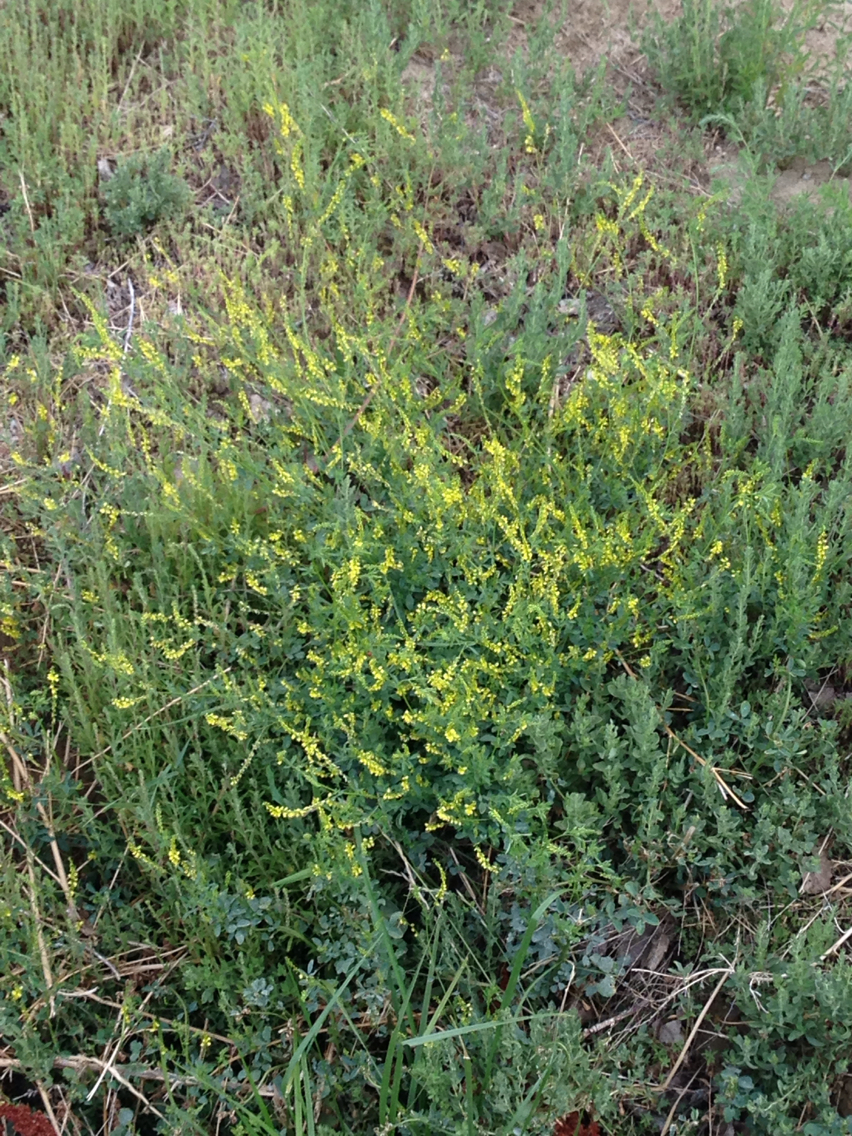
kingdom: Plantae
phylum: Tracheophyta
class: Magnoliopsida
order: Fabales
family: Fabaceae
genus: Melilotus
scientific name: Melilotus officinalis
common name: Sweetclover
